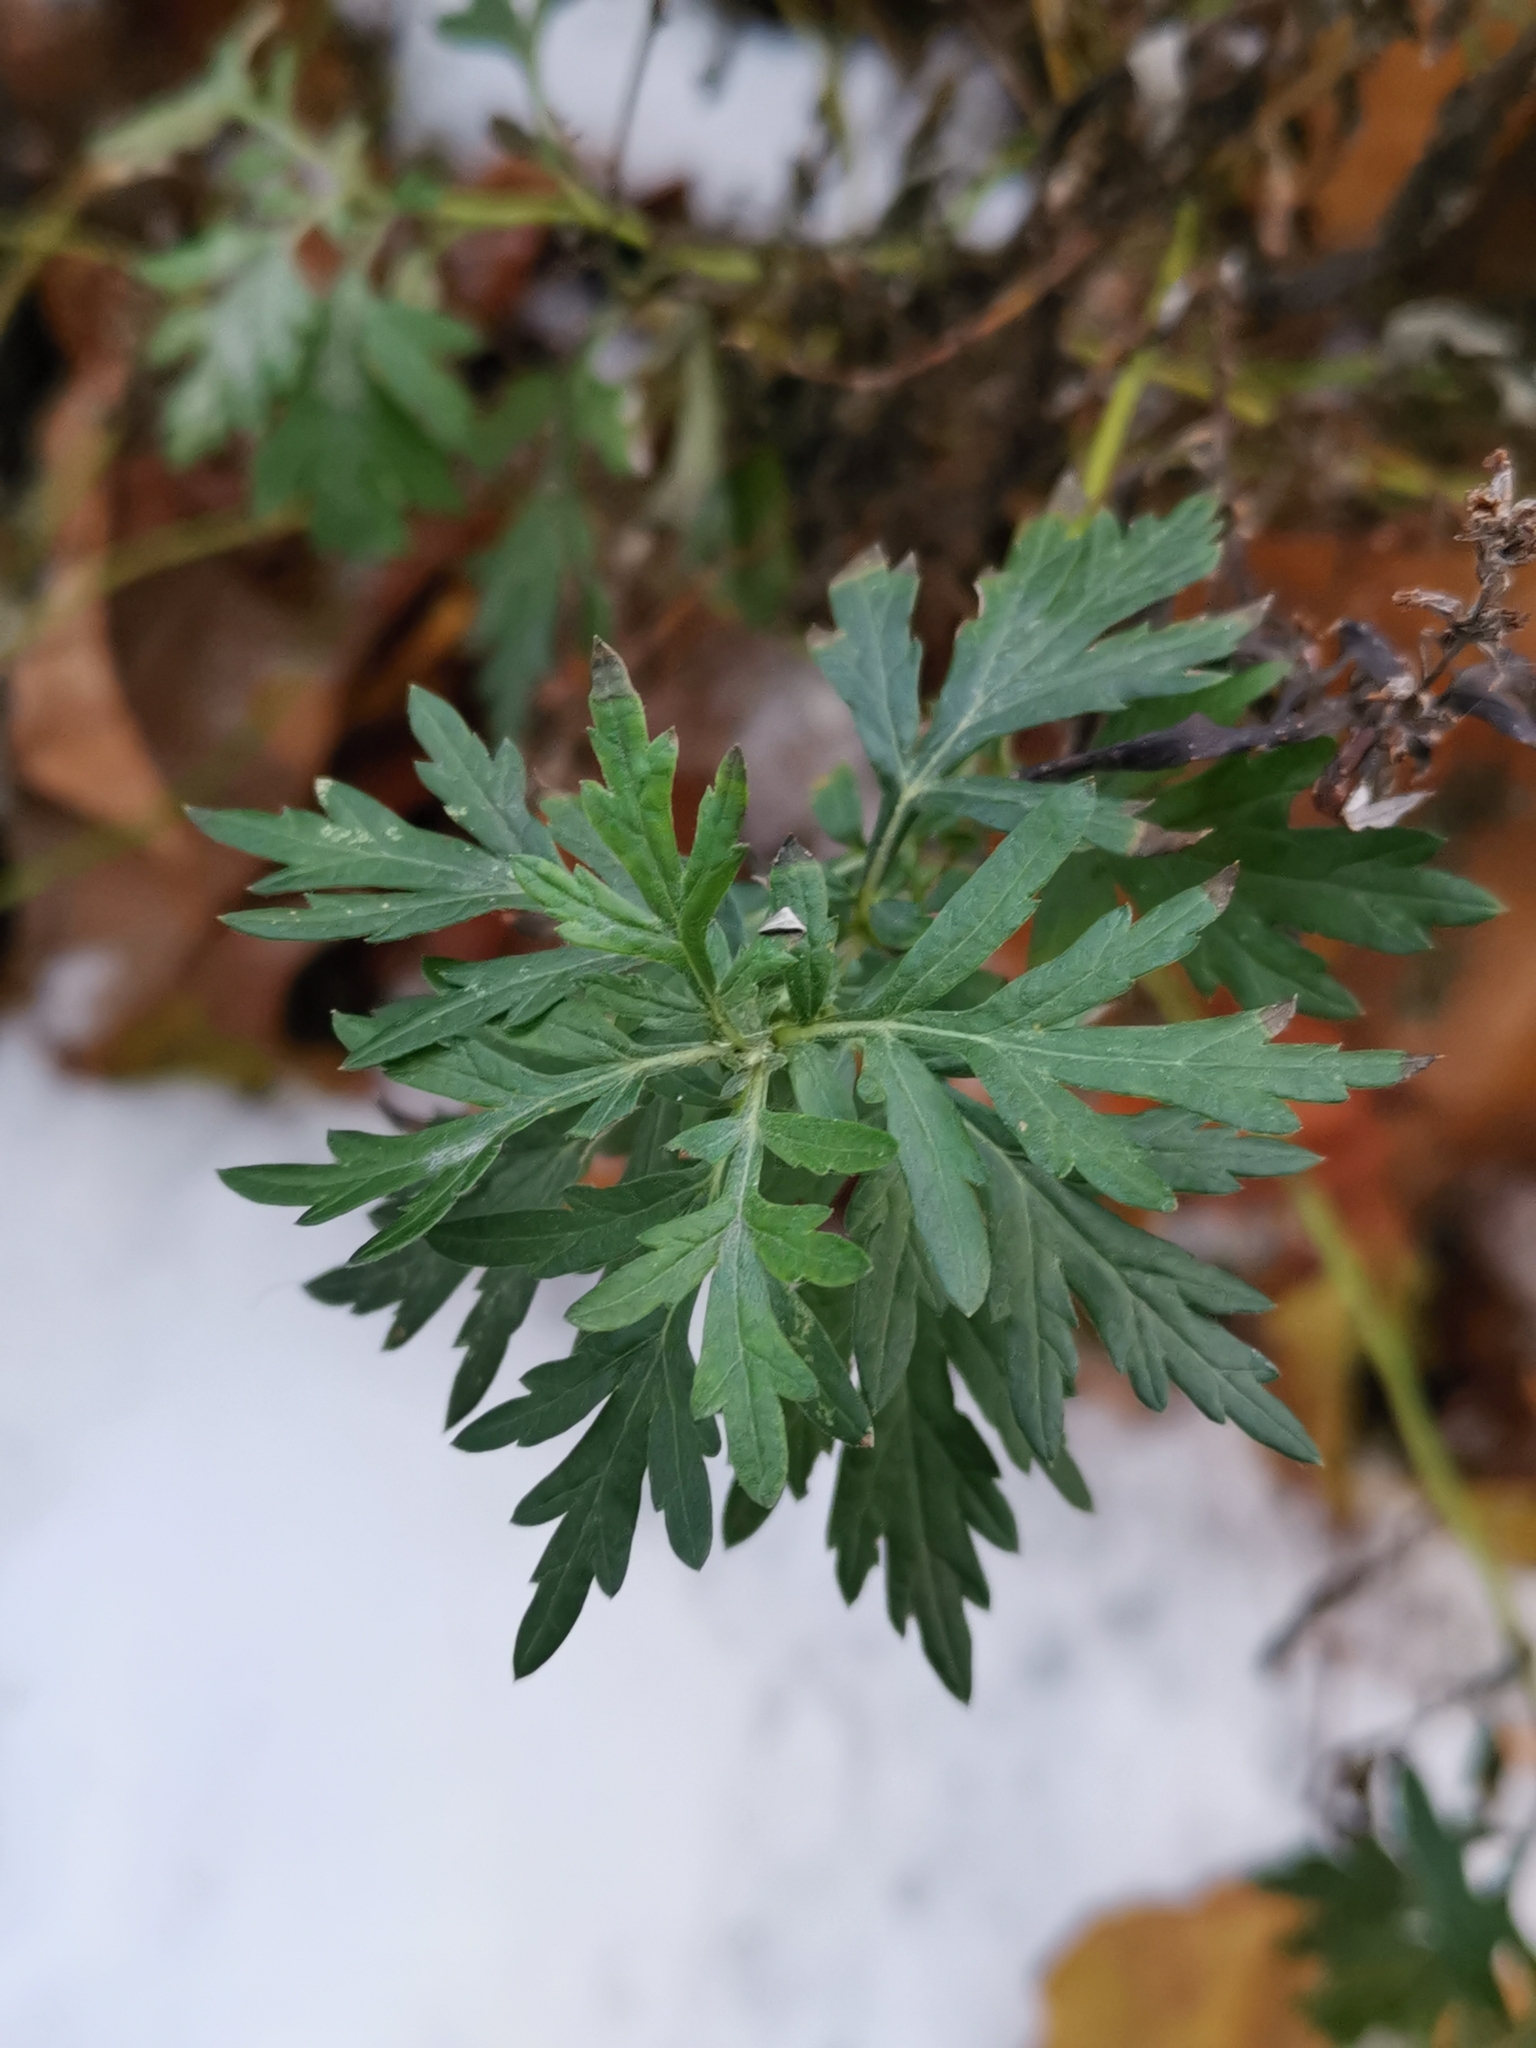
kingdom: Plantae
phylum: Tracheophyta
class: Magnoliopsida
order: Asterales
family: Asteraceae
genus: Artemisia
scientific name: Artemisia vulgaris
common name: Mugwort
